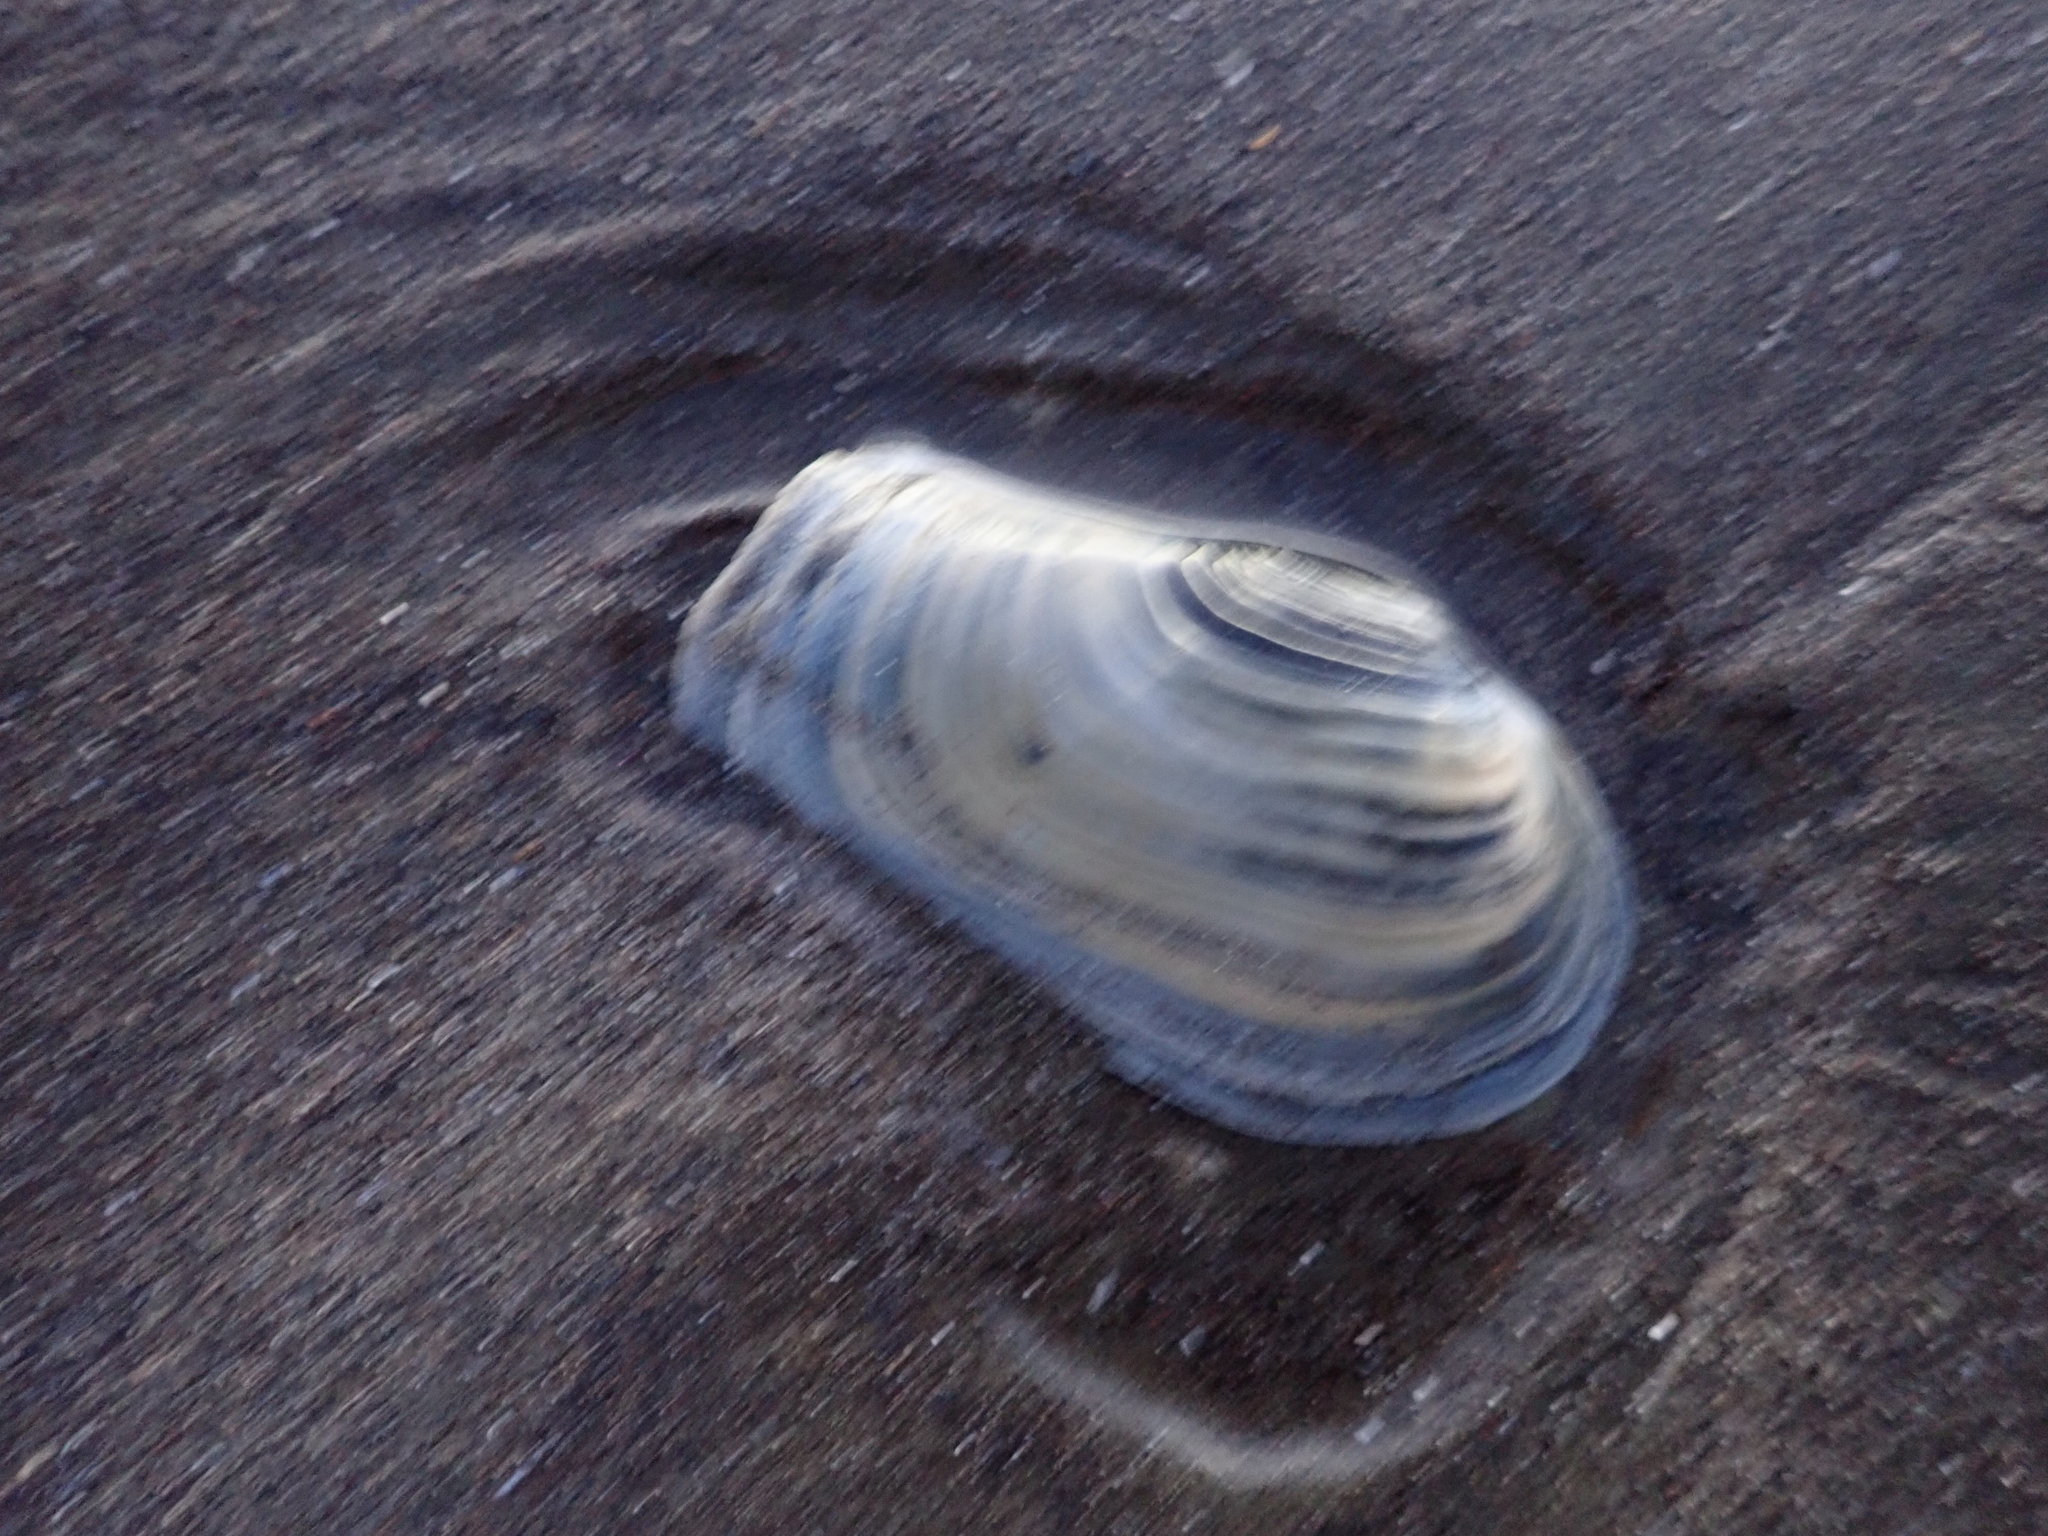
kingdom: Animalia
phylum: Mollusca
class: Bivalvia
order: Adapedonta
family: Hiatellidae
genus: Panopea
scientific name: Panopea zelandica
